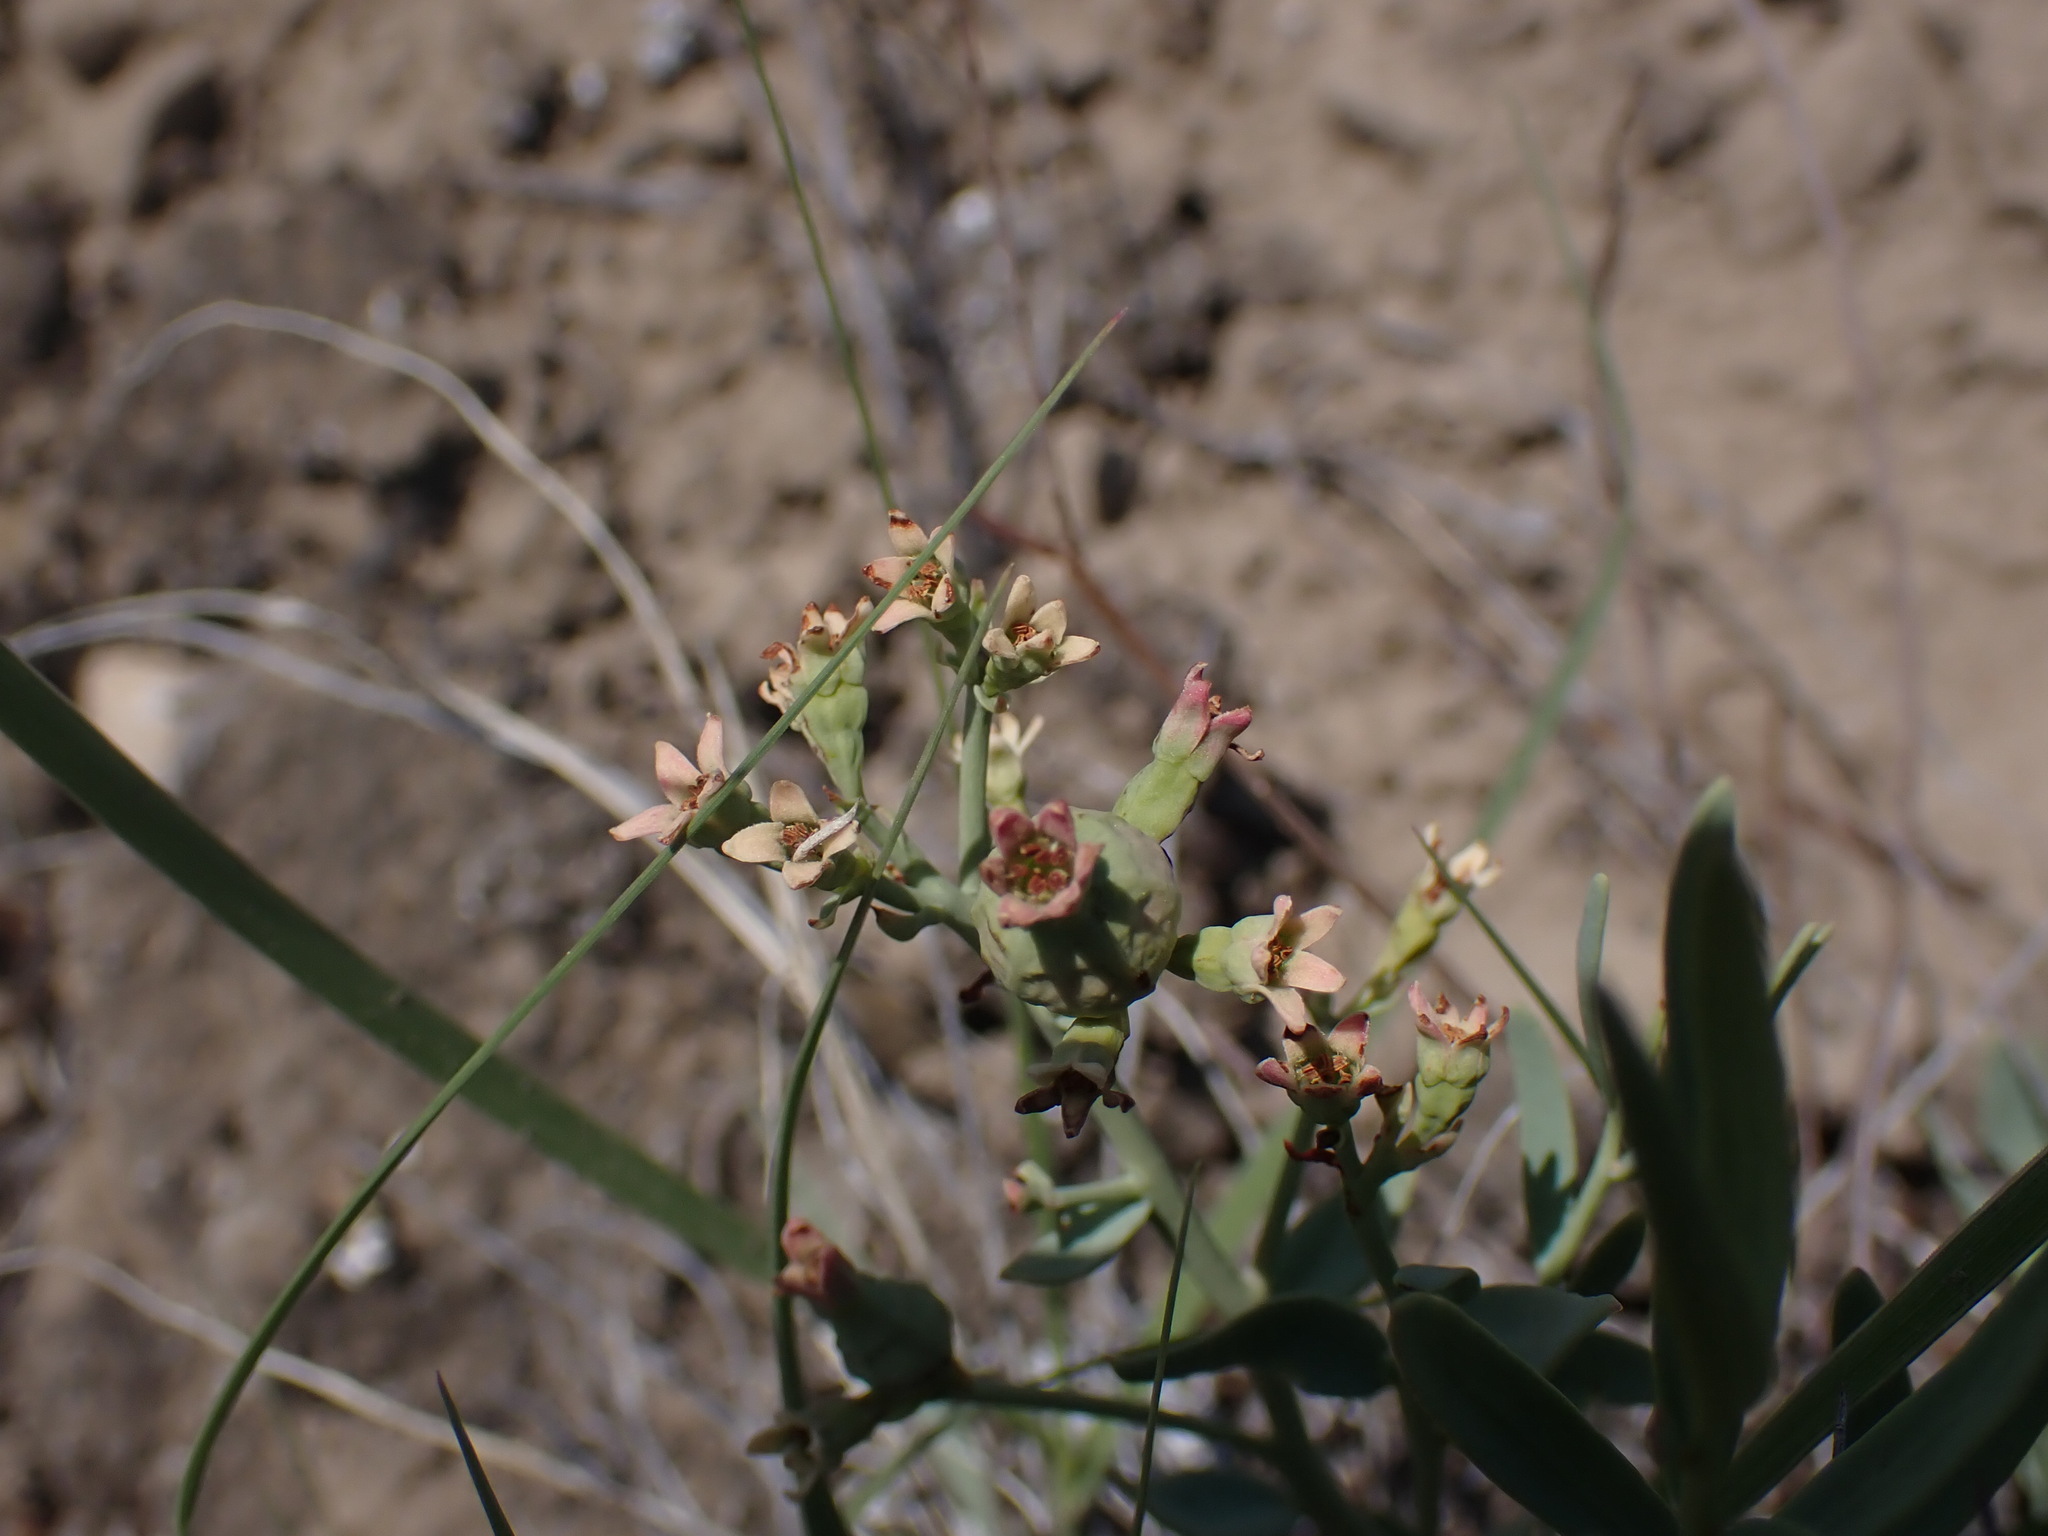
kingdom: Plantae
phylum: Tracheophyta
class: Magnoliopsida
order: Santalales
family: Comandraceae
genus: Comandra
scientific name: Comandra umbellata
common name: Bastard toadflax
